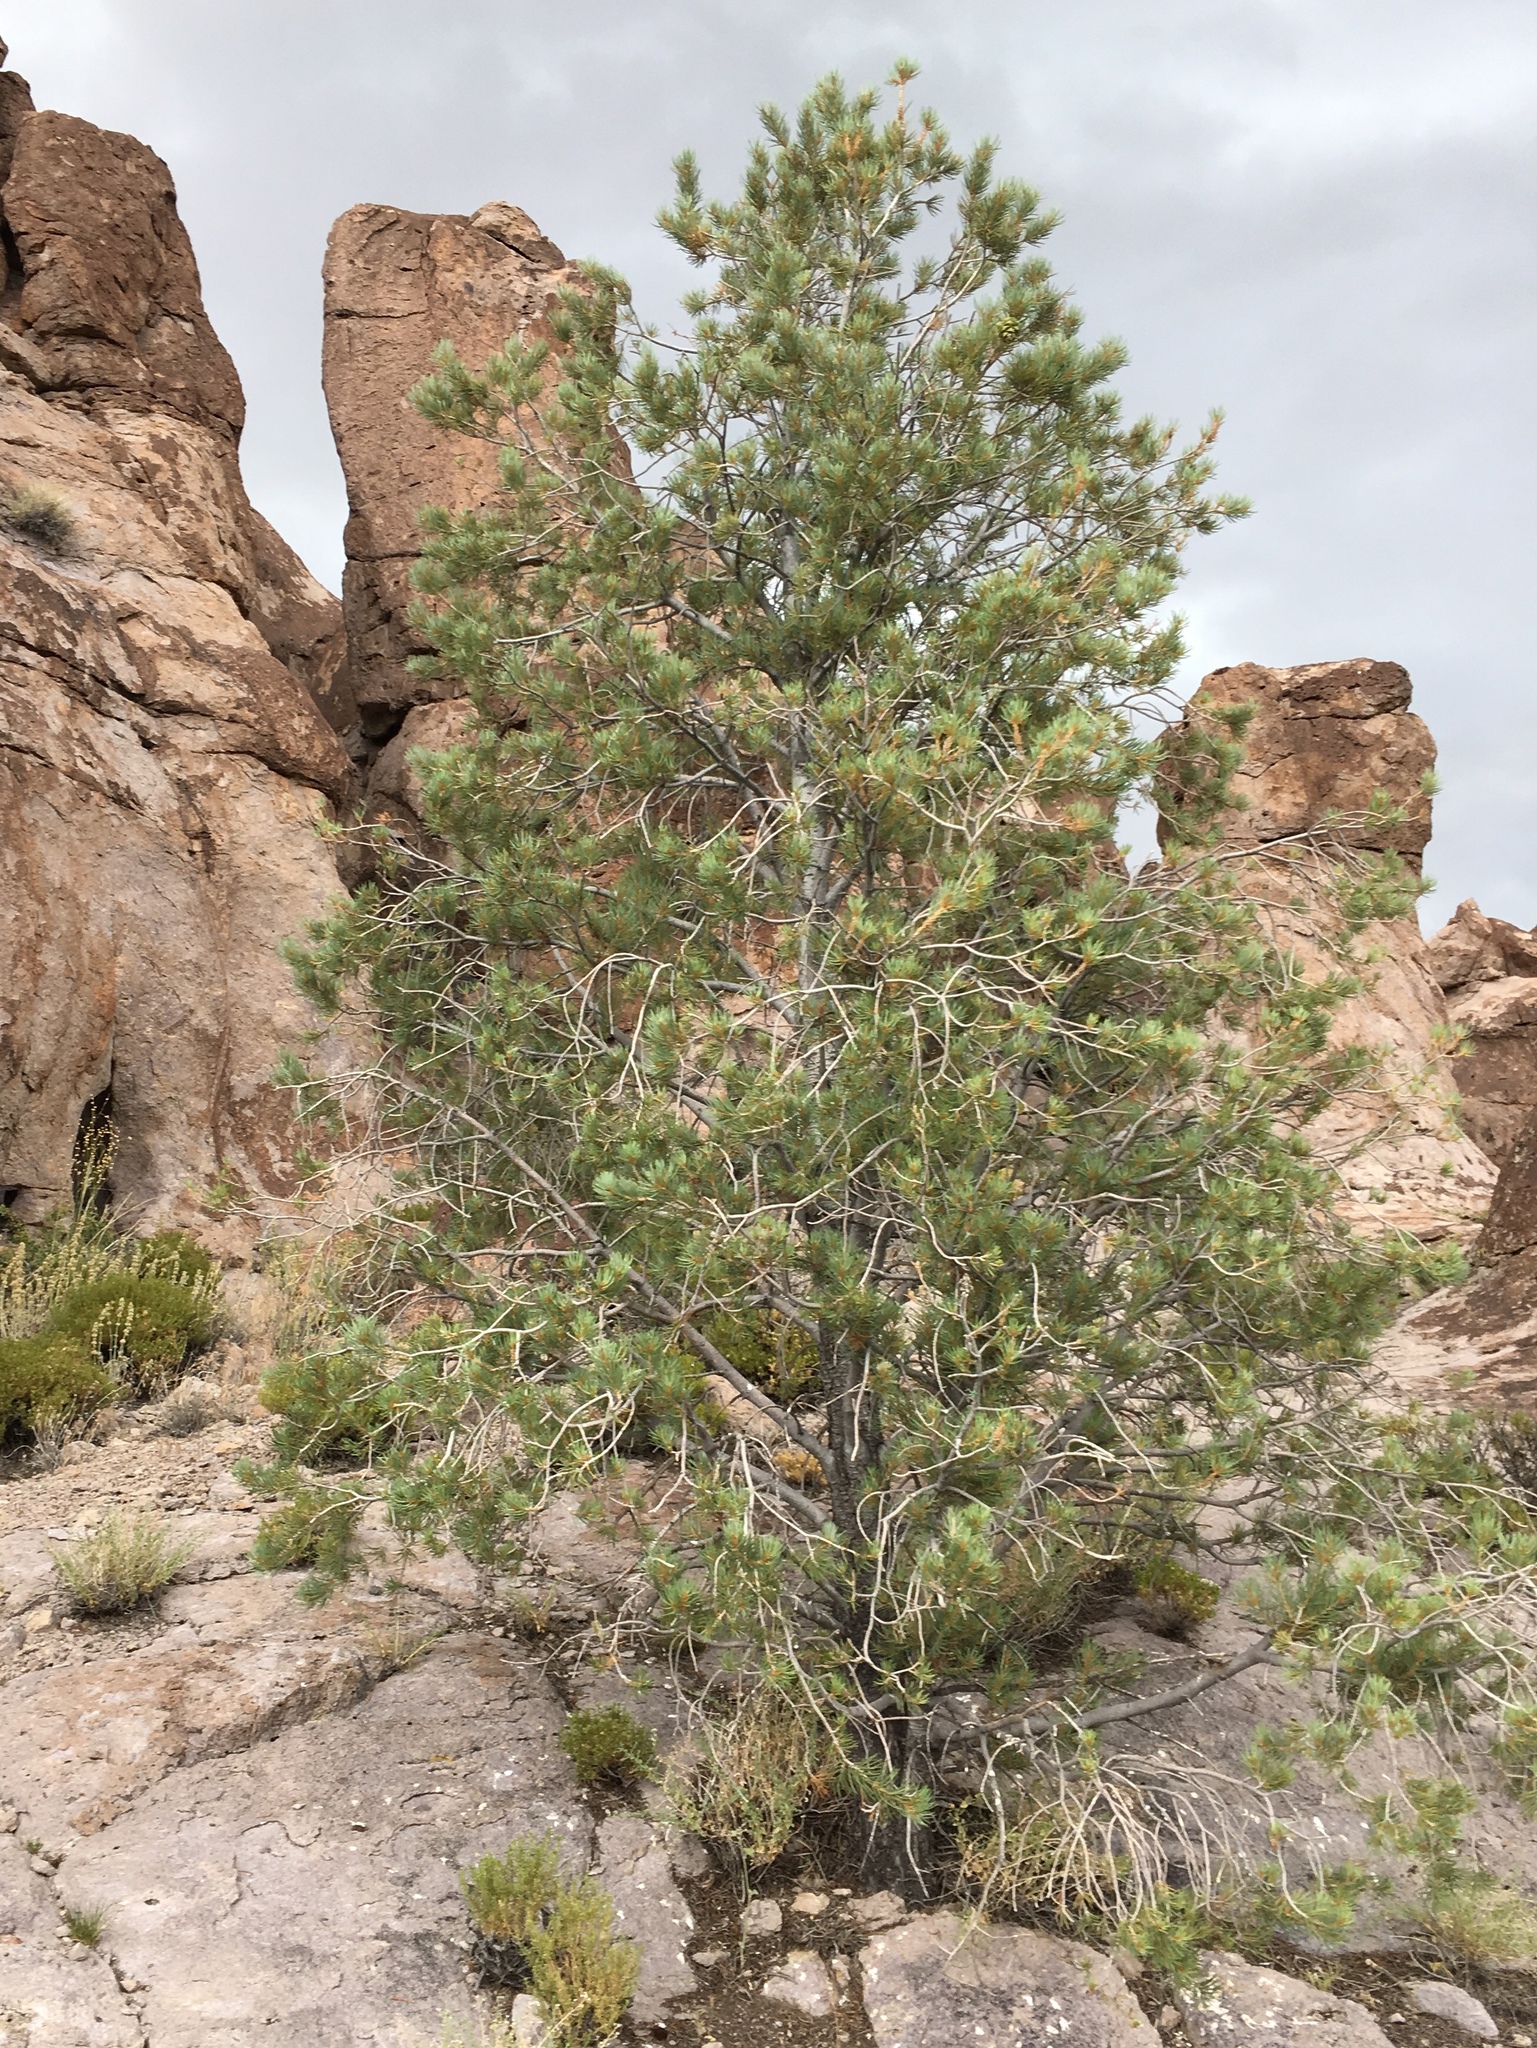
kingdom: Plantae
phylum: Tracheophyta
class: Pinopsida
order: Pinales
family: Pinaceae
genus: Pinus
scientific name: Pinus monophylla
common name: One-leaved nut pine
